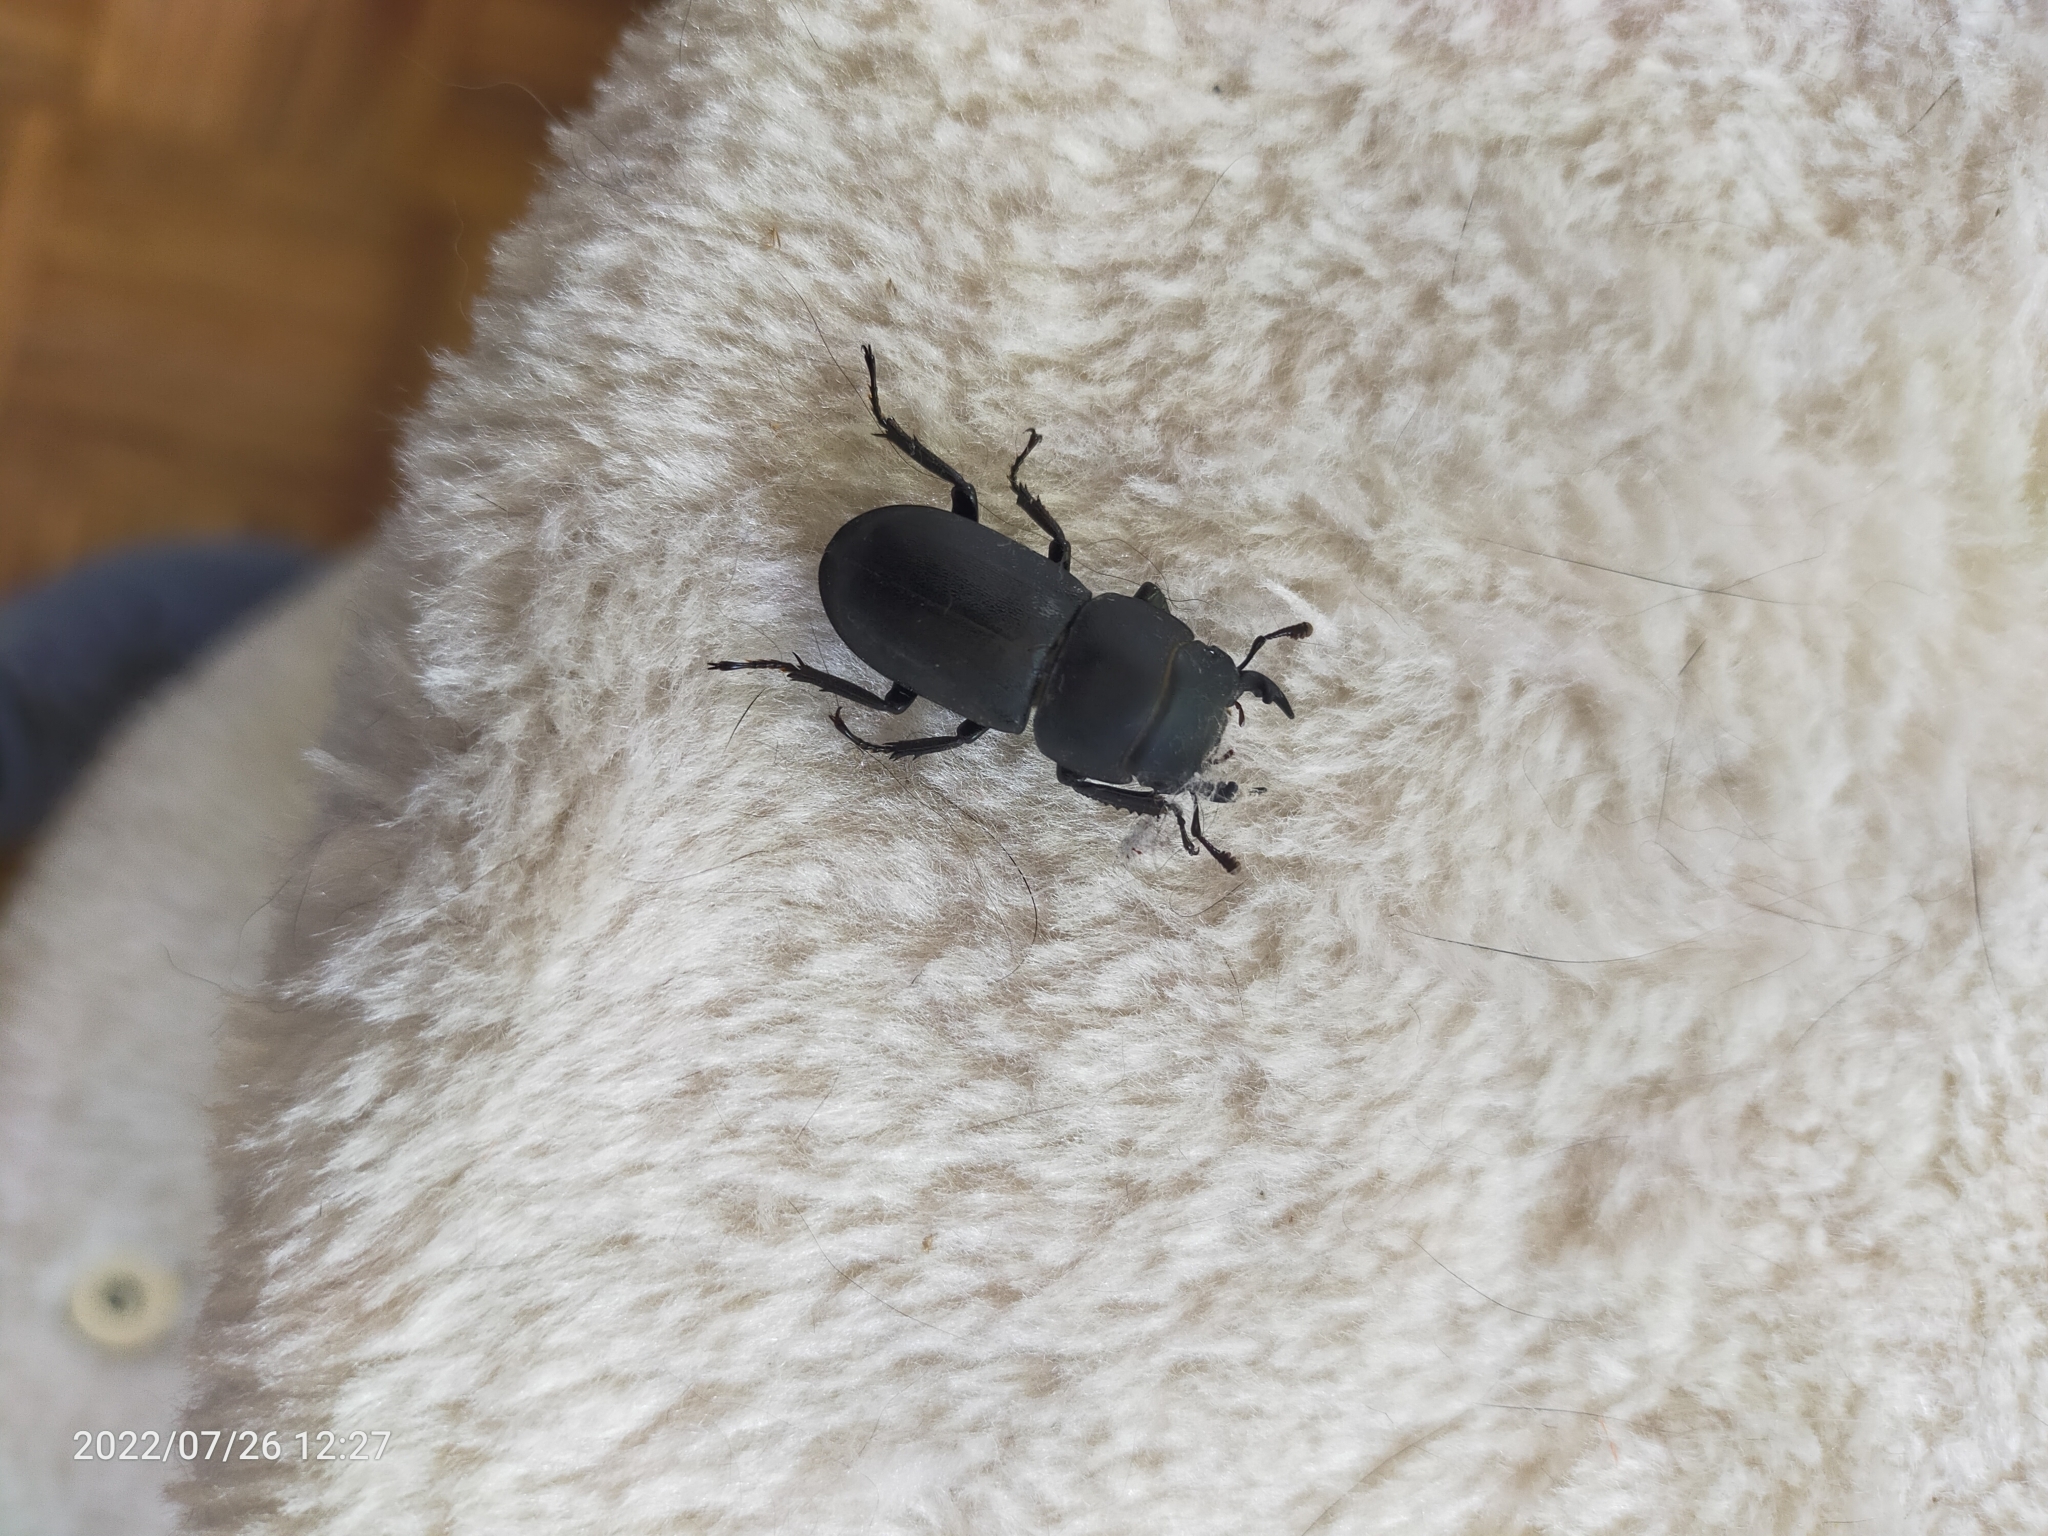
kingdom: Animalia
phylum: Arthropoda
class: Insecta
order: Coleoptera
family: Lucanidae
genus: Dorcus
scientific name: Dorcus parallelipipedus
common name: Lesser stag beetle
